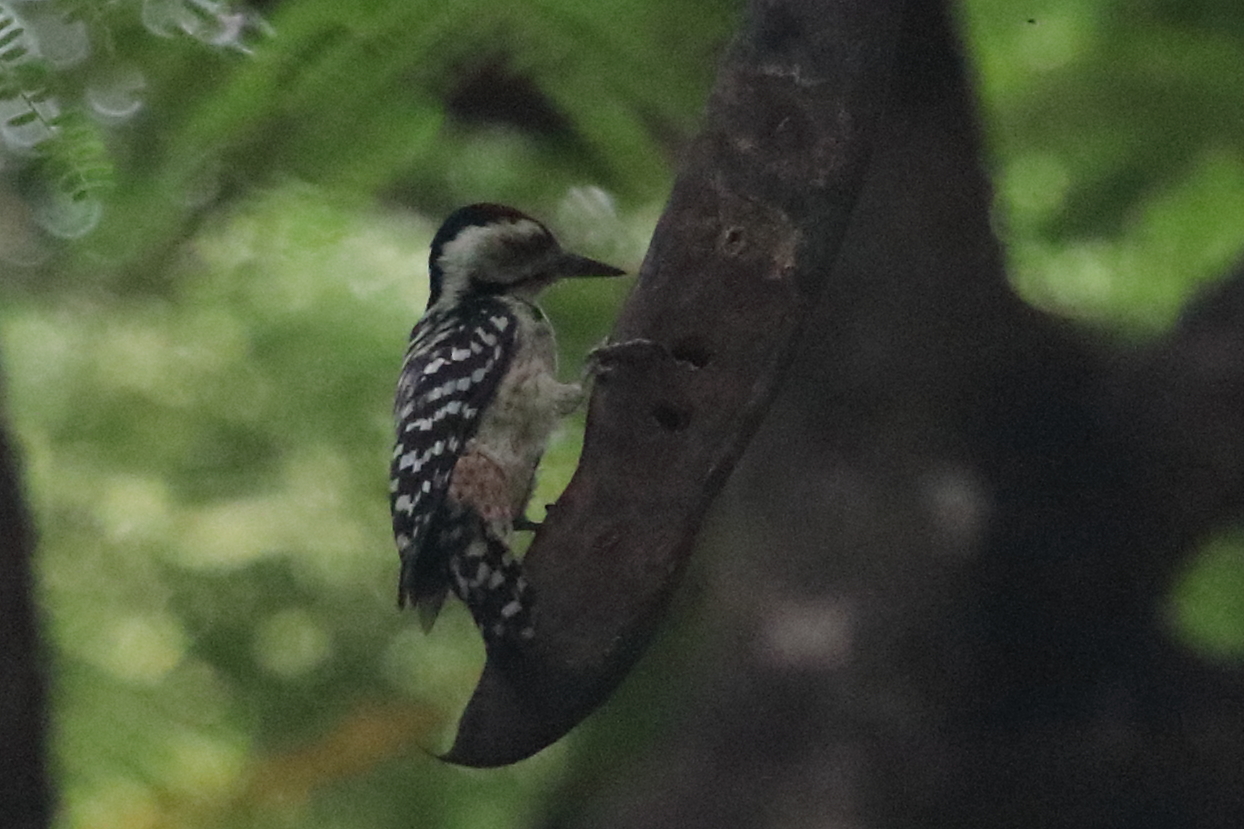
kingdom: Animalia
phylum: Chordata
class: Aves
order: Piciformes
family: Picidae
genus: Dendrocopos
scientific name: Dendrocopos analis
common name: Freckle-breasted woodpecker
